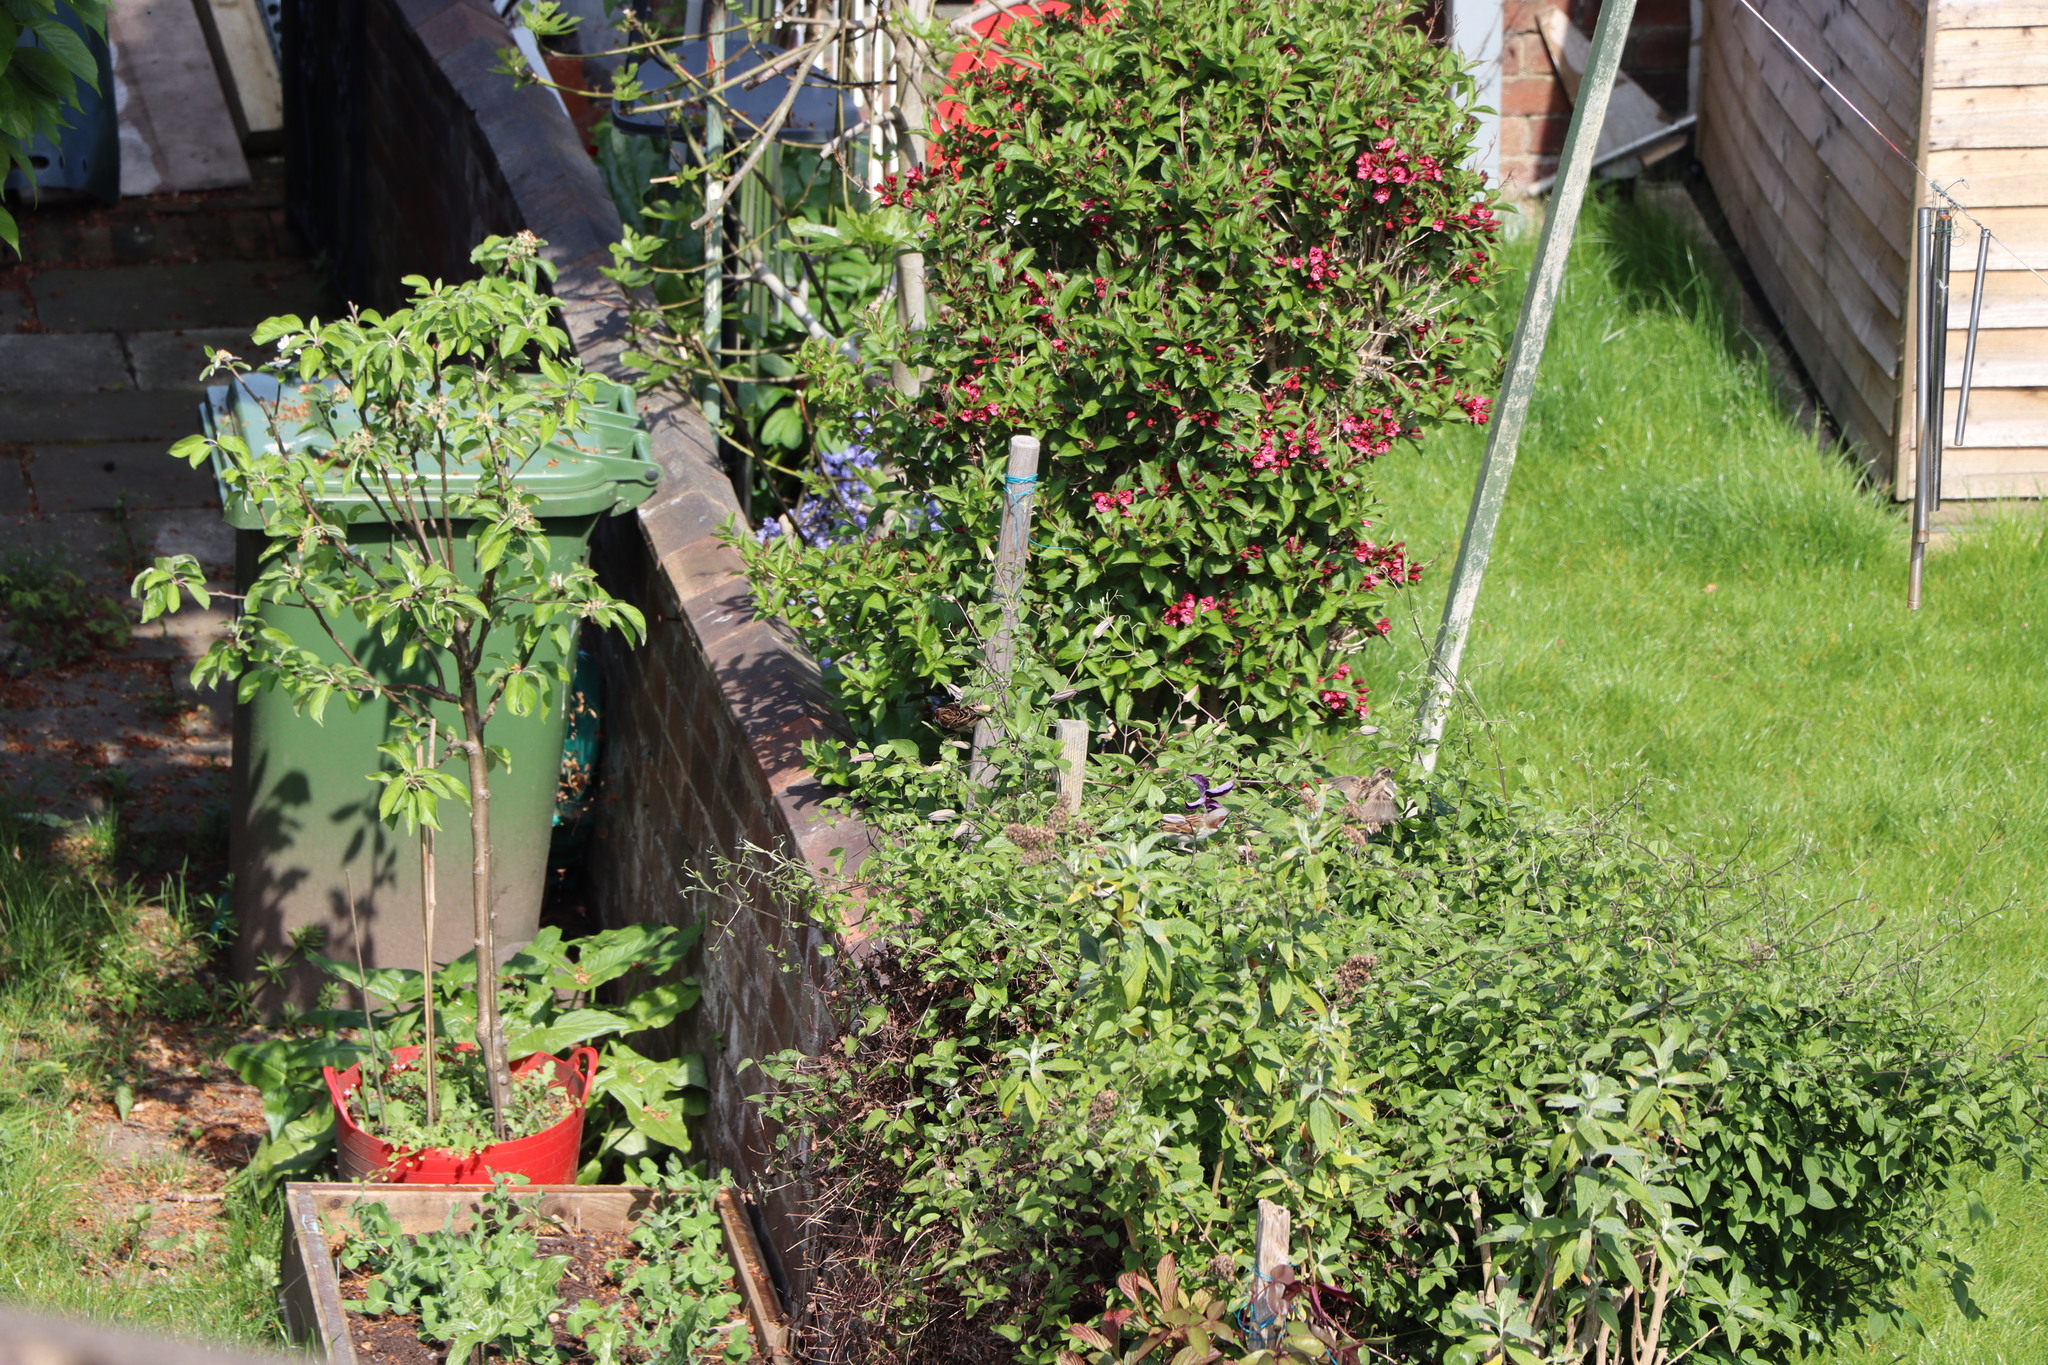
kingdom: Animalia
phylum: Chordata
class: Aves
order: Passeriformes
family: Passeridae
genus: Passer
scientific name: Passer domesticus
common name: House sparrow
